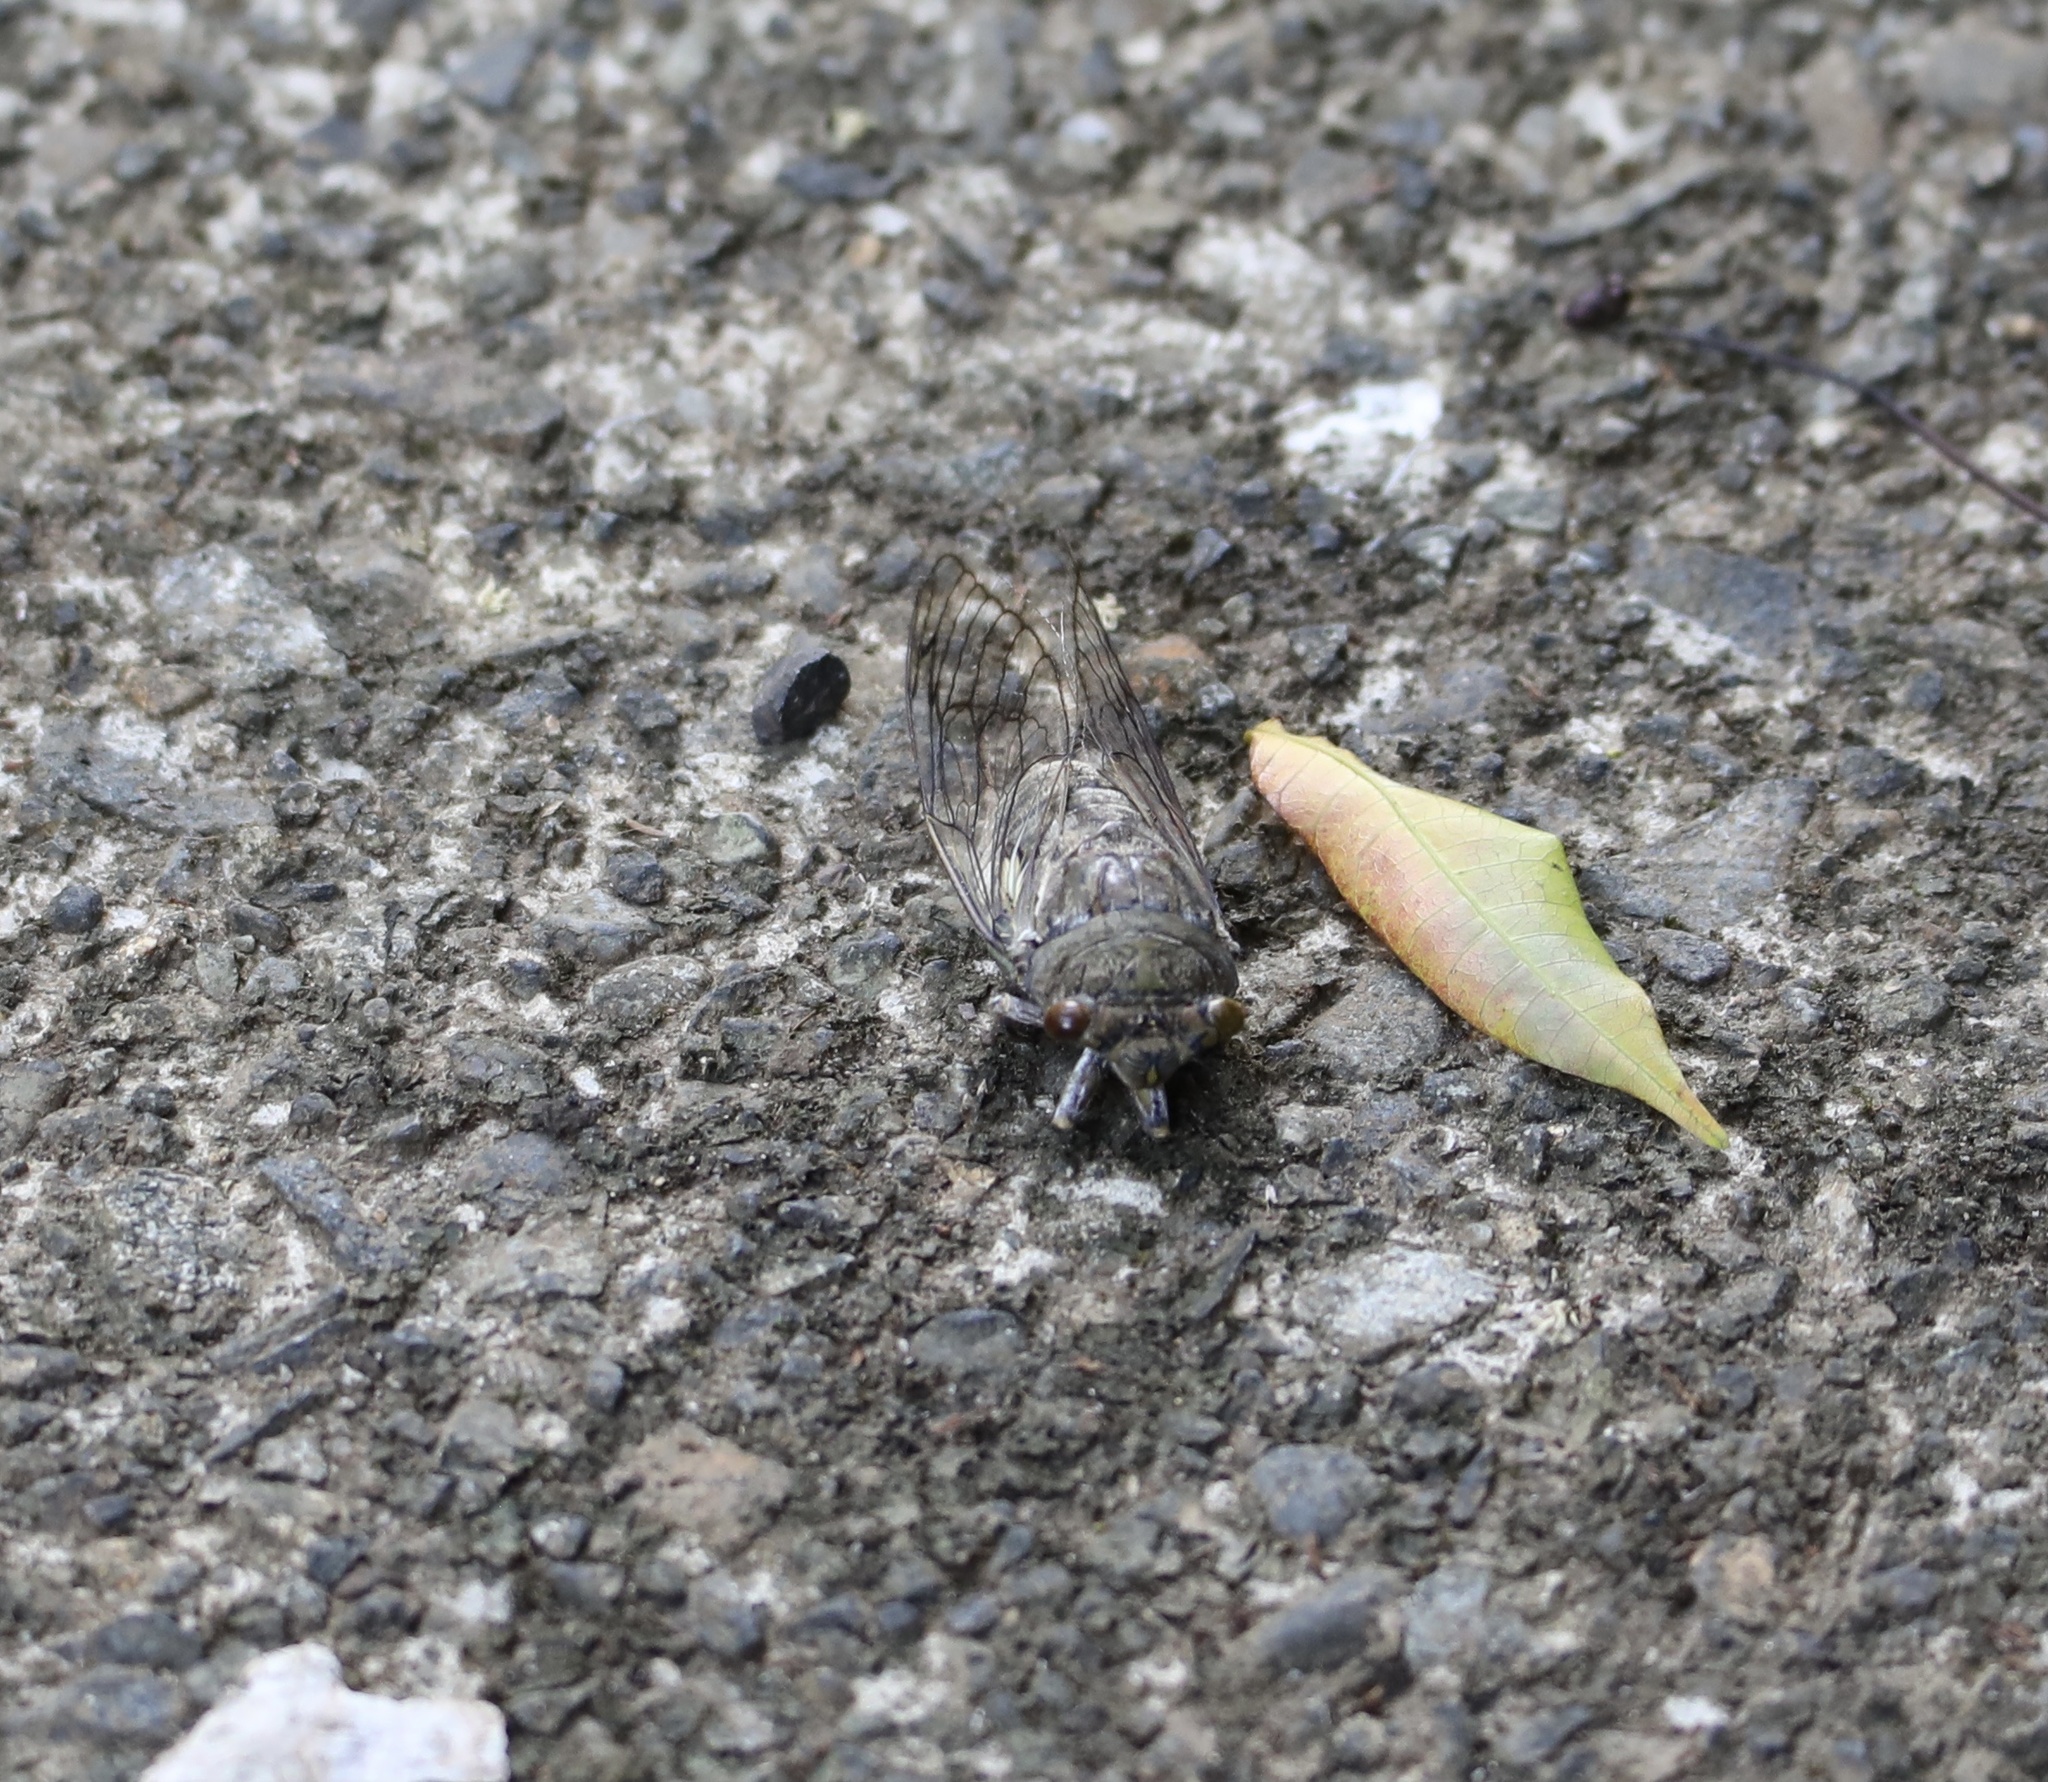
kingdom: Animalia
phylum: Arthropoda
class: Insecta
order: Hemiptera
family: Cicadidae
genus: Quesada
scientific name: Quesada gigas
